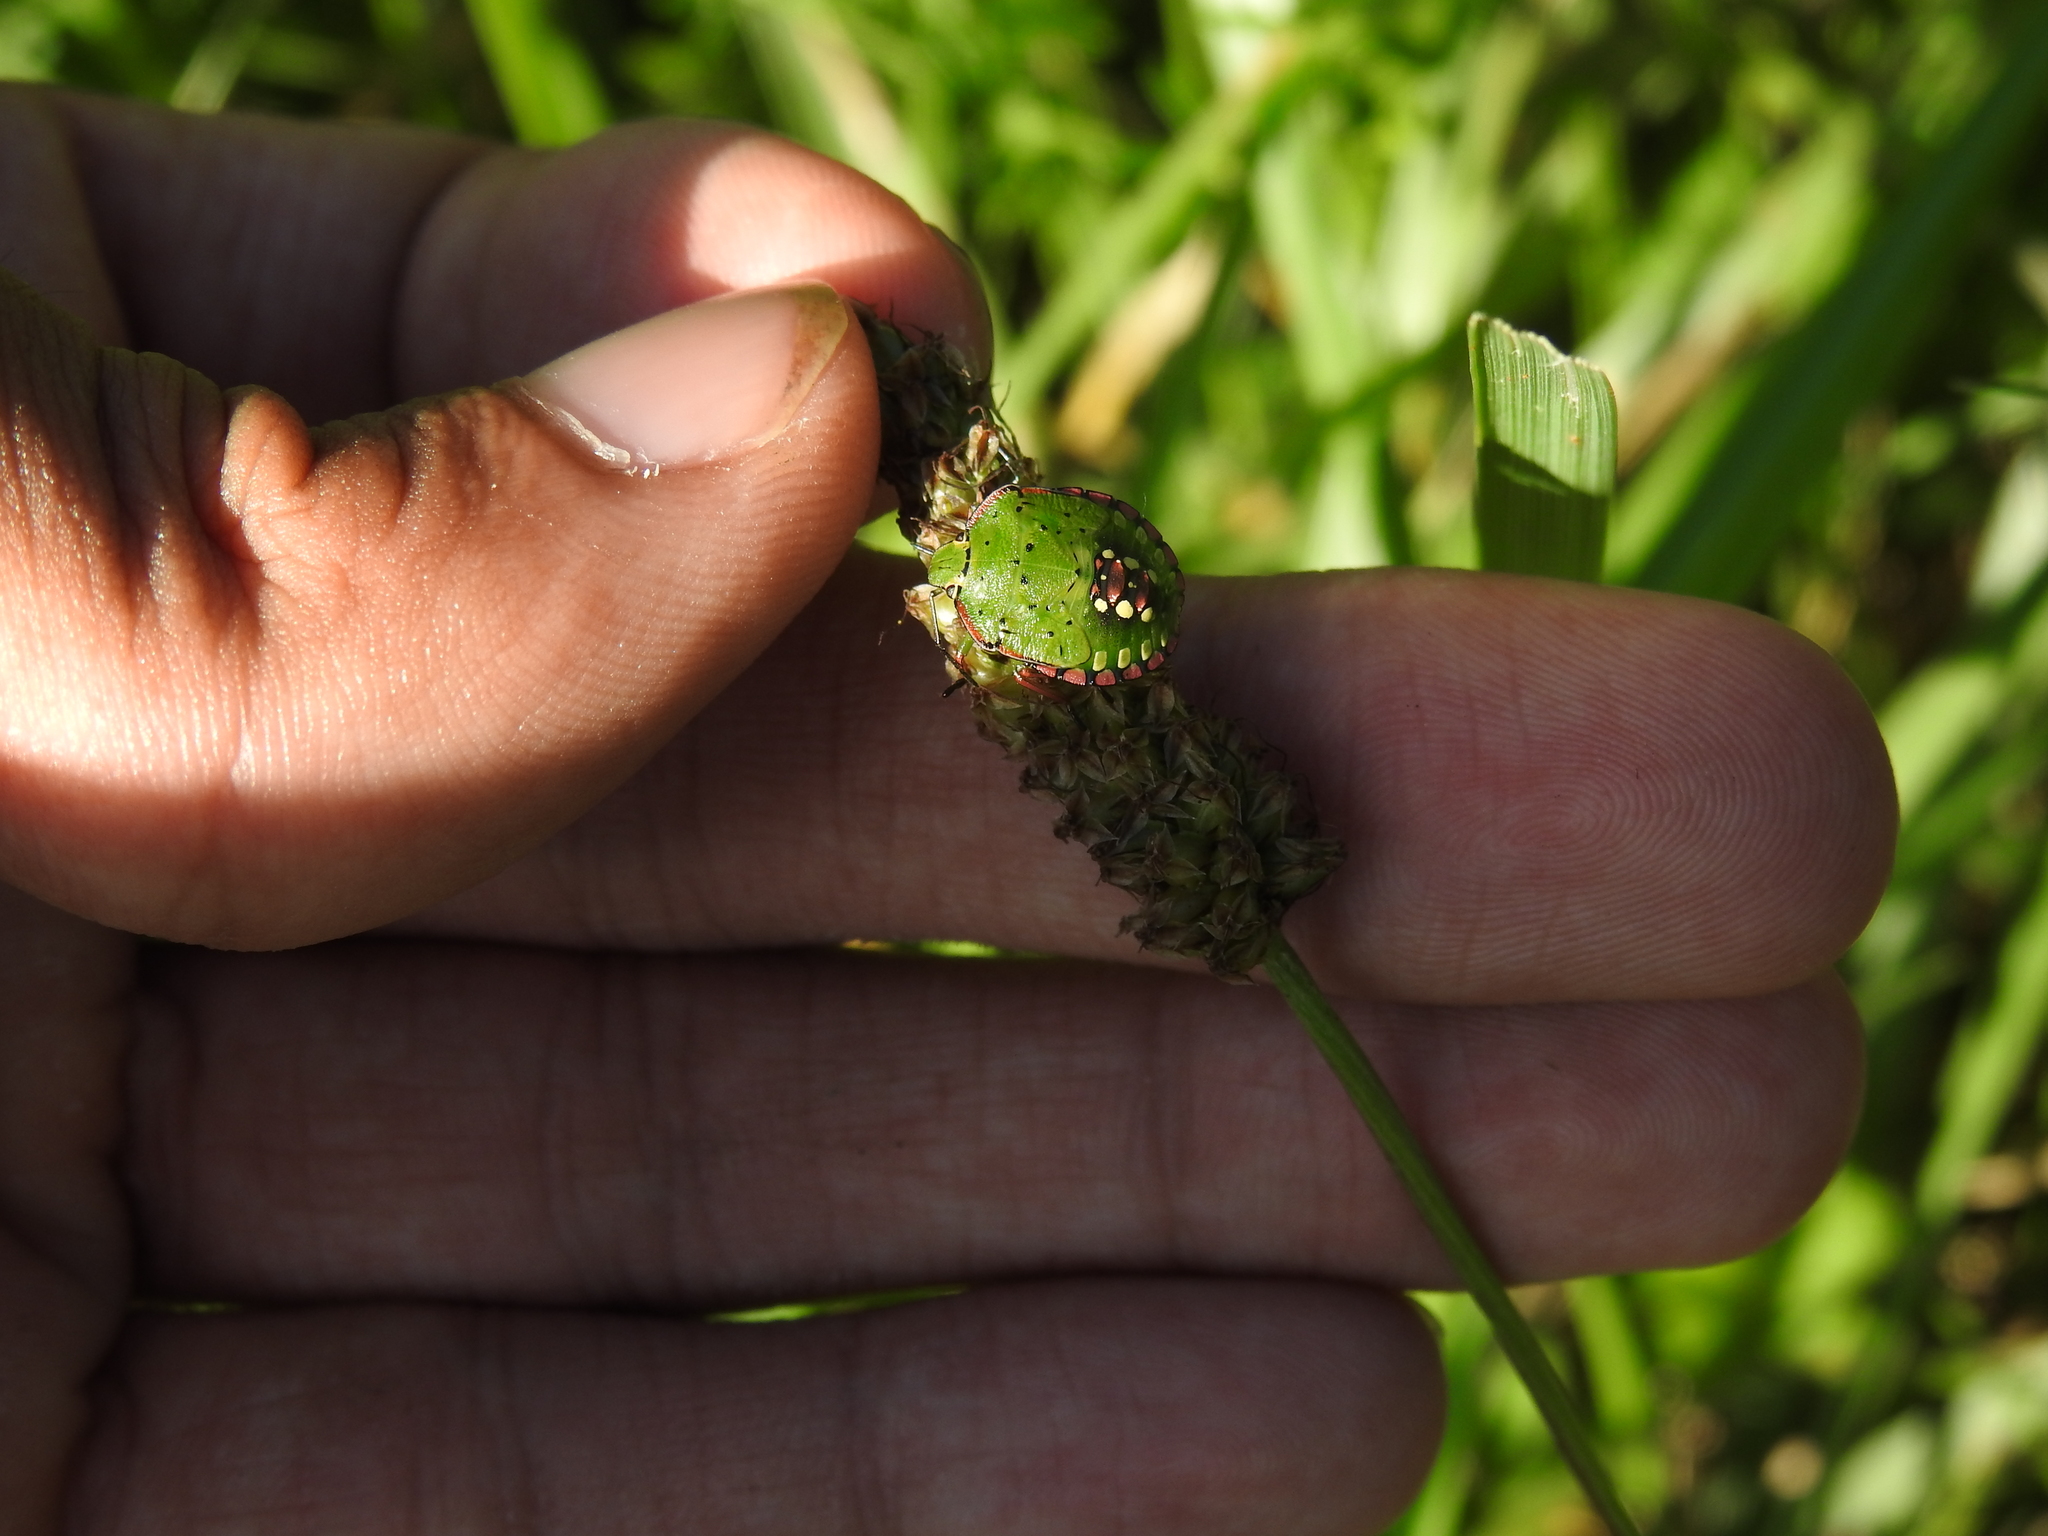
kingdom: Animalia
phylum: Arthropoda
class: Insecta
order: Hemiptera
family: Pentatomidae
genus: Nezara
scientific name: Nezara viridula
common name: Southern green stink bug
